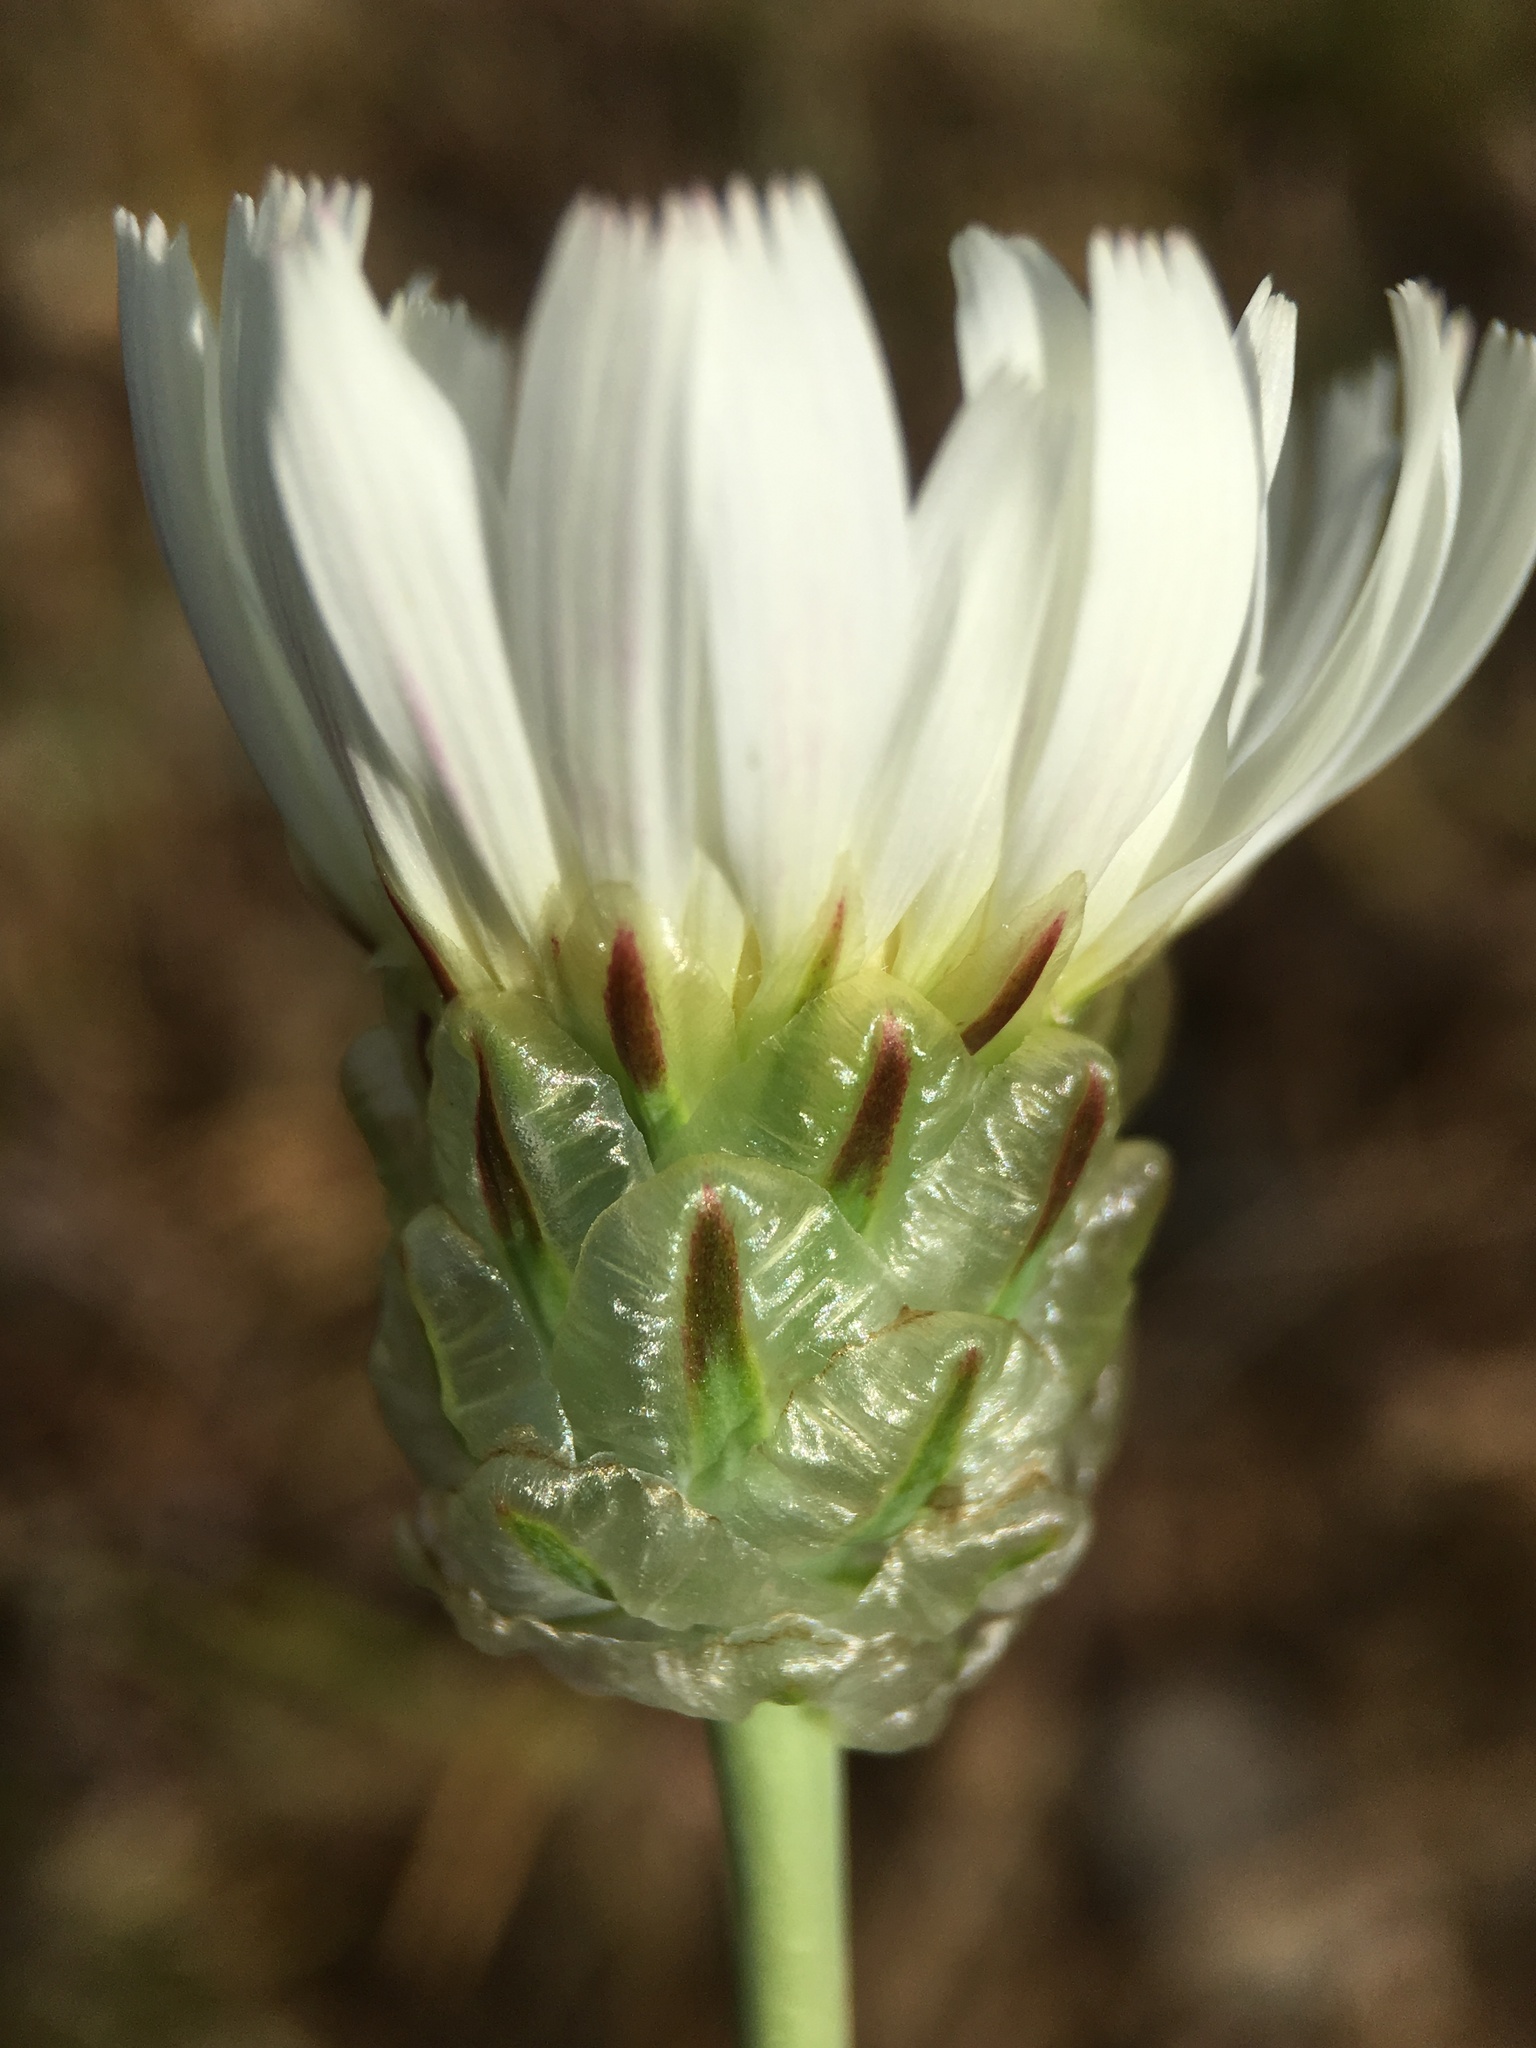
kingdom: Plantae
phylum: Tracheophyta
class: Magnoliopsida
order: Asterales
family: Asteraceae
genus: Malacothrix
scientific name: Malacothrix coulteri
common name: Snake's-head
